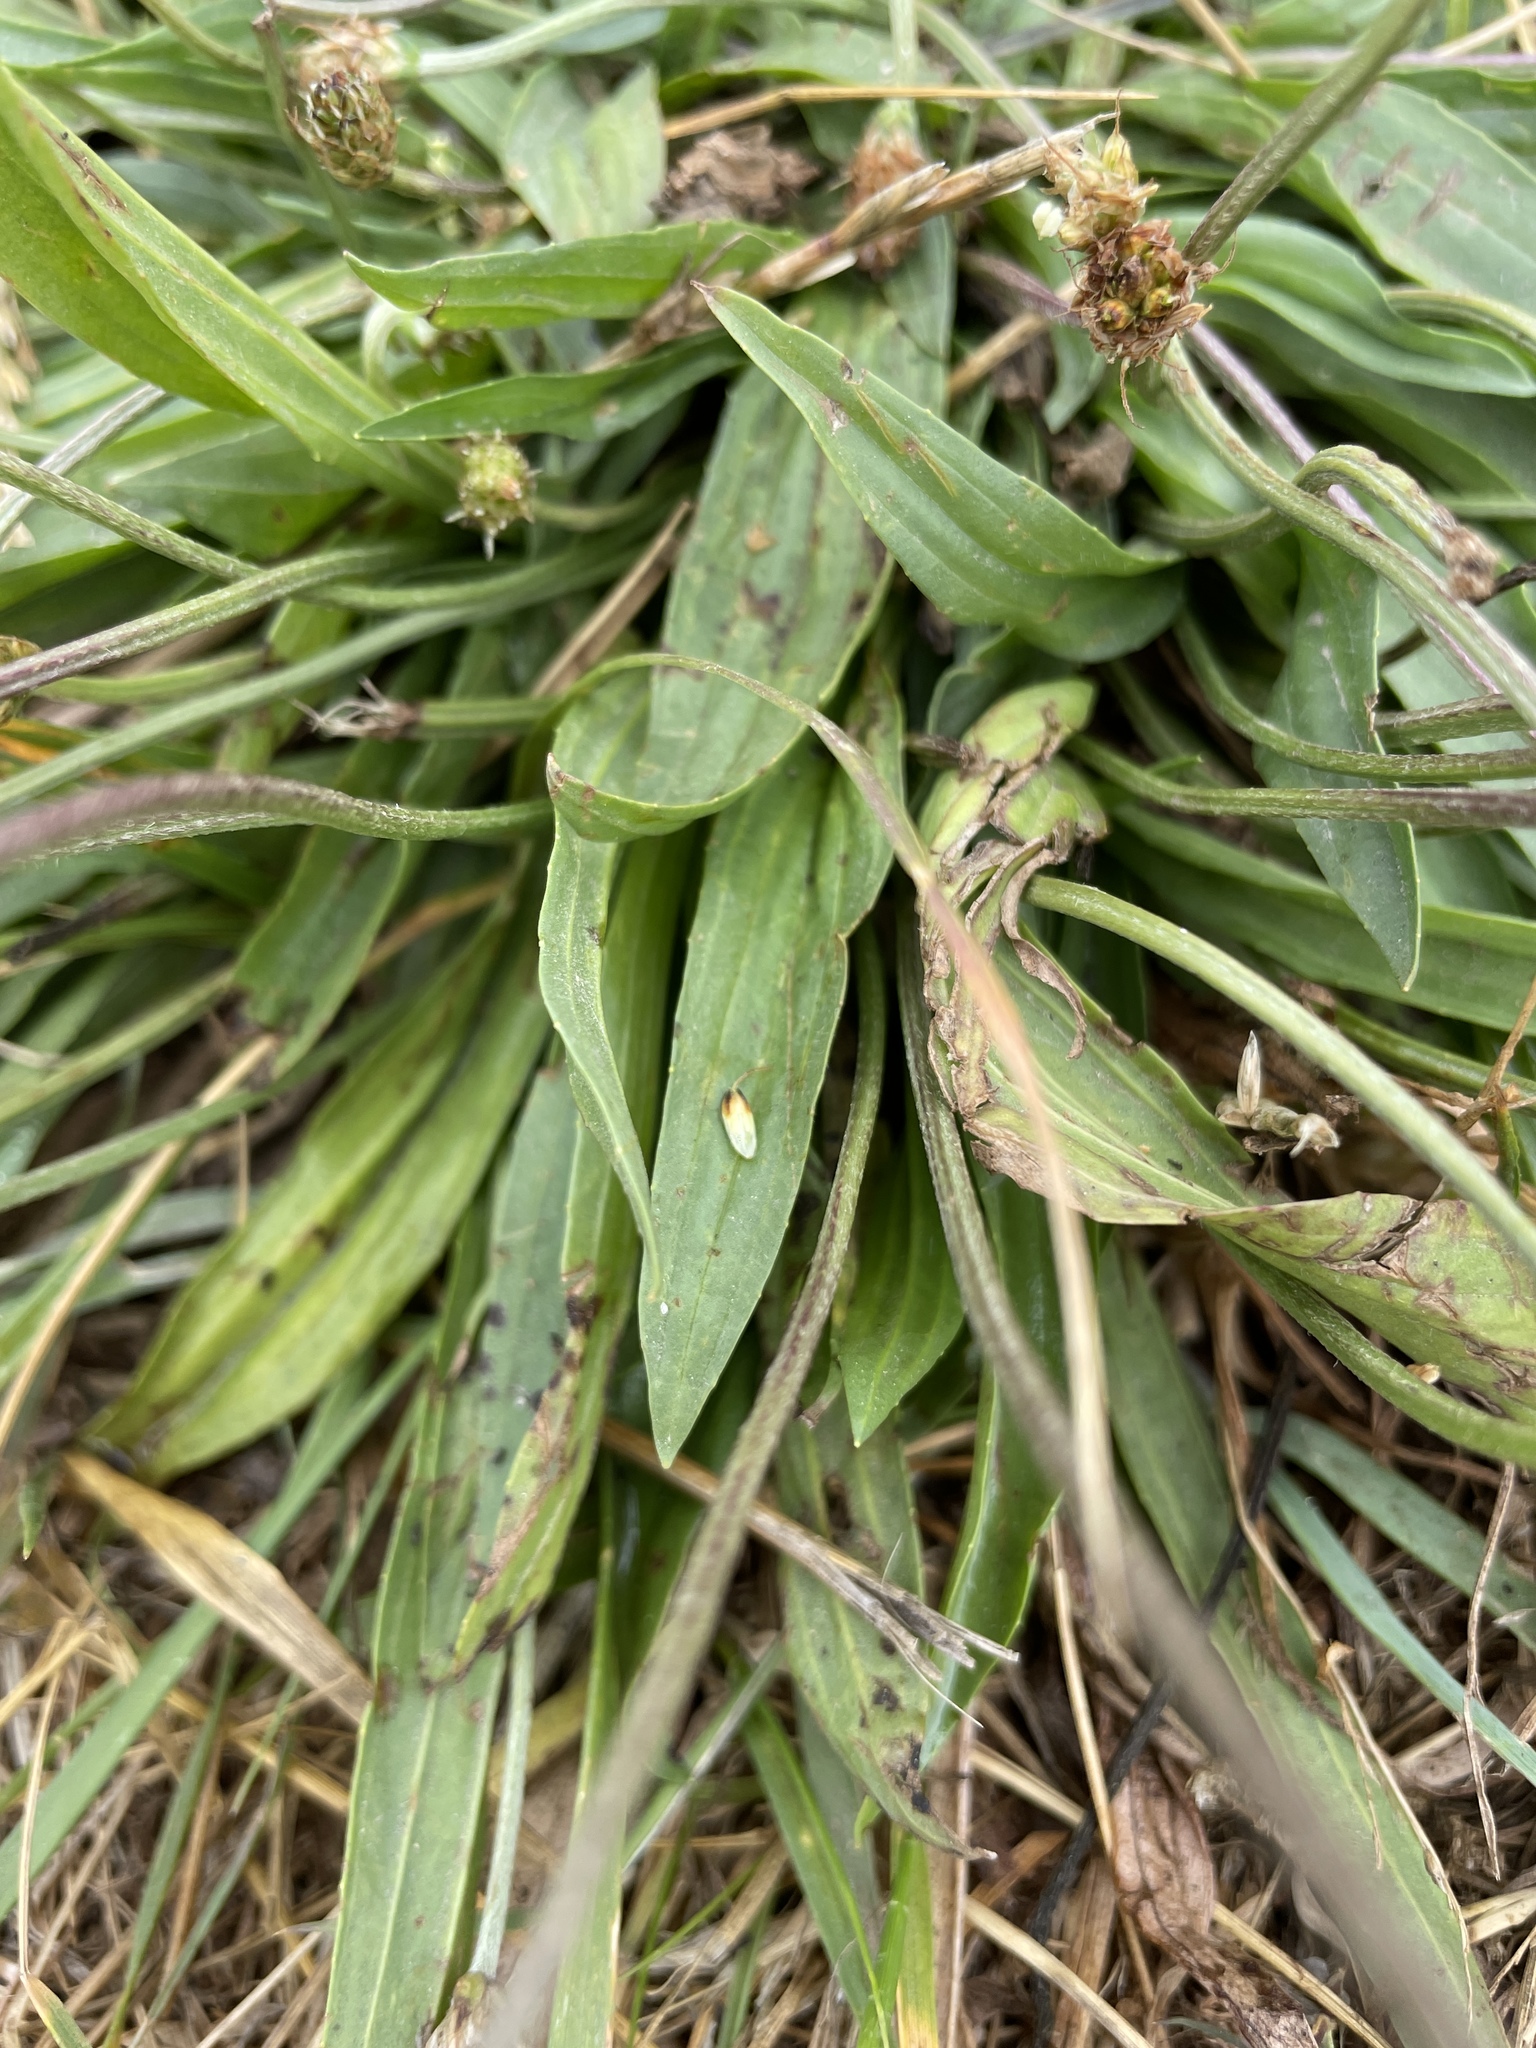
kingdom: Plantae
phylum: Tracheophyta
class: Magnoliopsida
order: Lamiales
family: Plantaginaceae
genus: Plantago
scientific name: Plantago lanceolata
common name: Ribwort plantain
